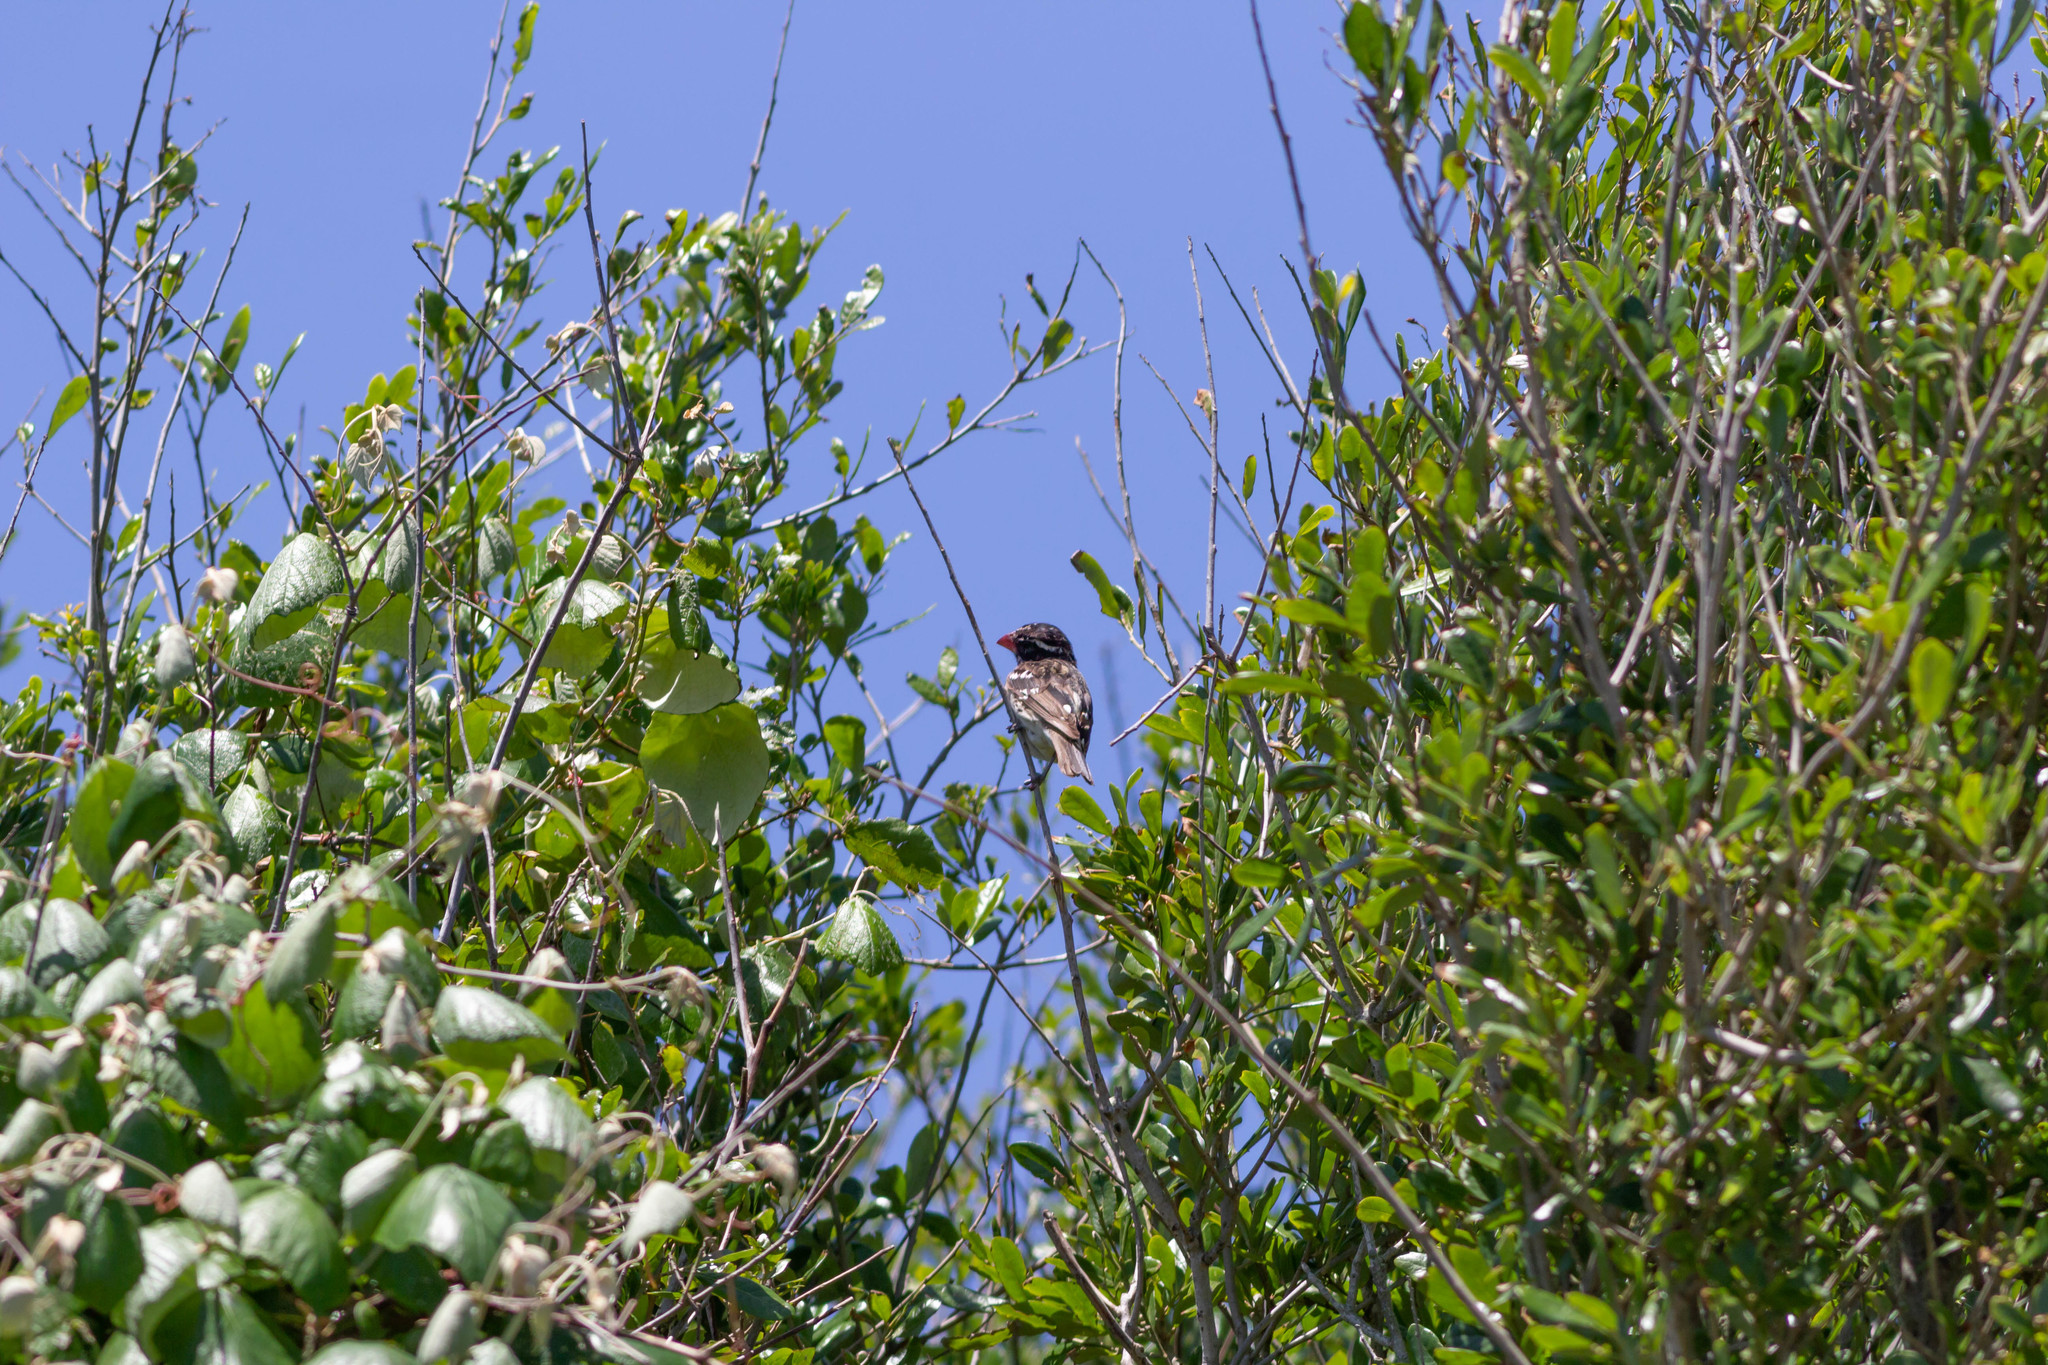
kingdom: Animalia
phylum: Chordata
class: Aves
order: Passeriformes
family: Cardinalidae
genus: Pheucticus
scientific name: Pheucticus ludovicianus
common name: Rose-breasted grosbeak
